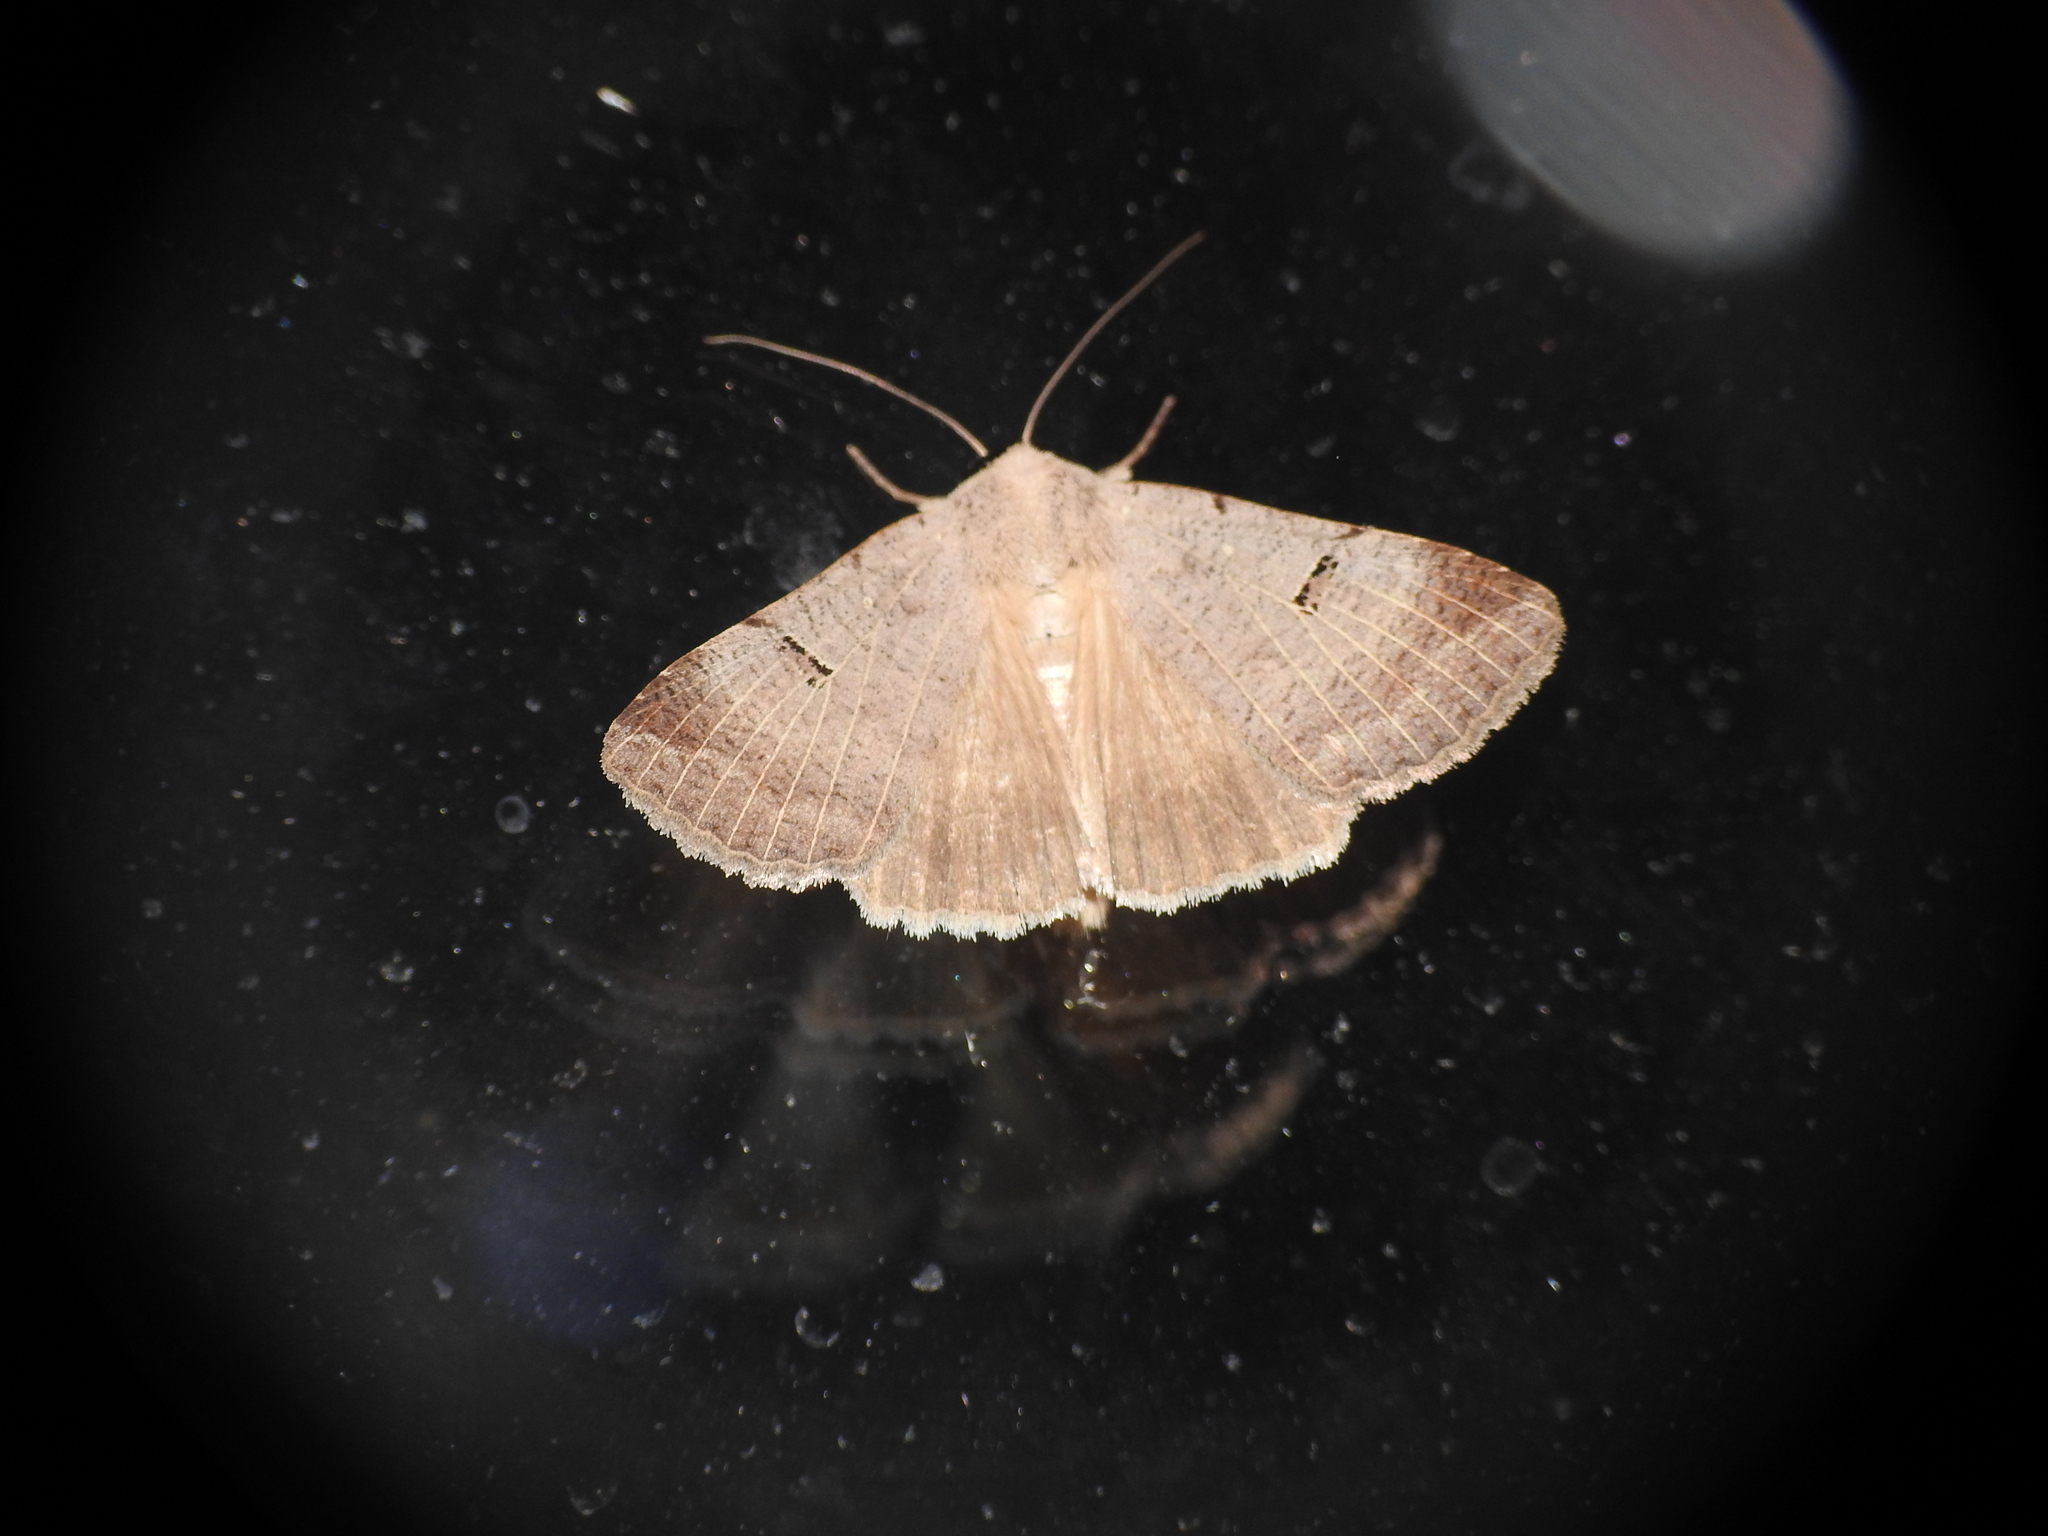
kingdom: Animalia
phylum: Arthropoda
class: Insecta
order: Lepidoptera
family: Erebidae
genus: Lygephila
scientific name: Lygephila craccae
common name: Scarce blackneck
